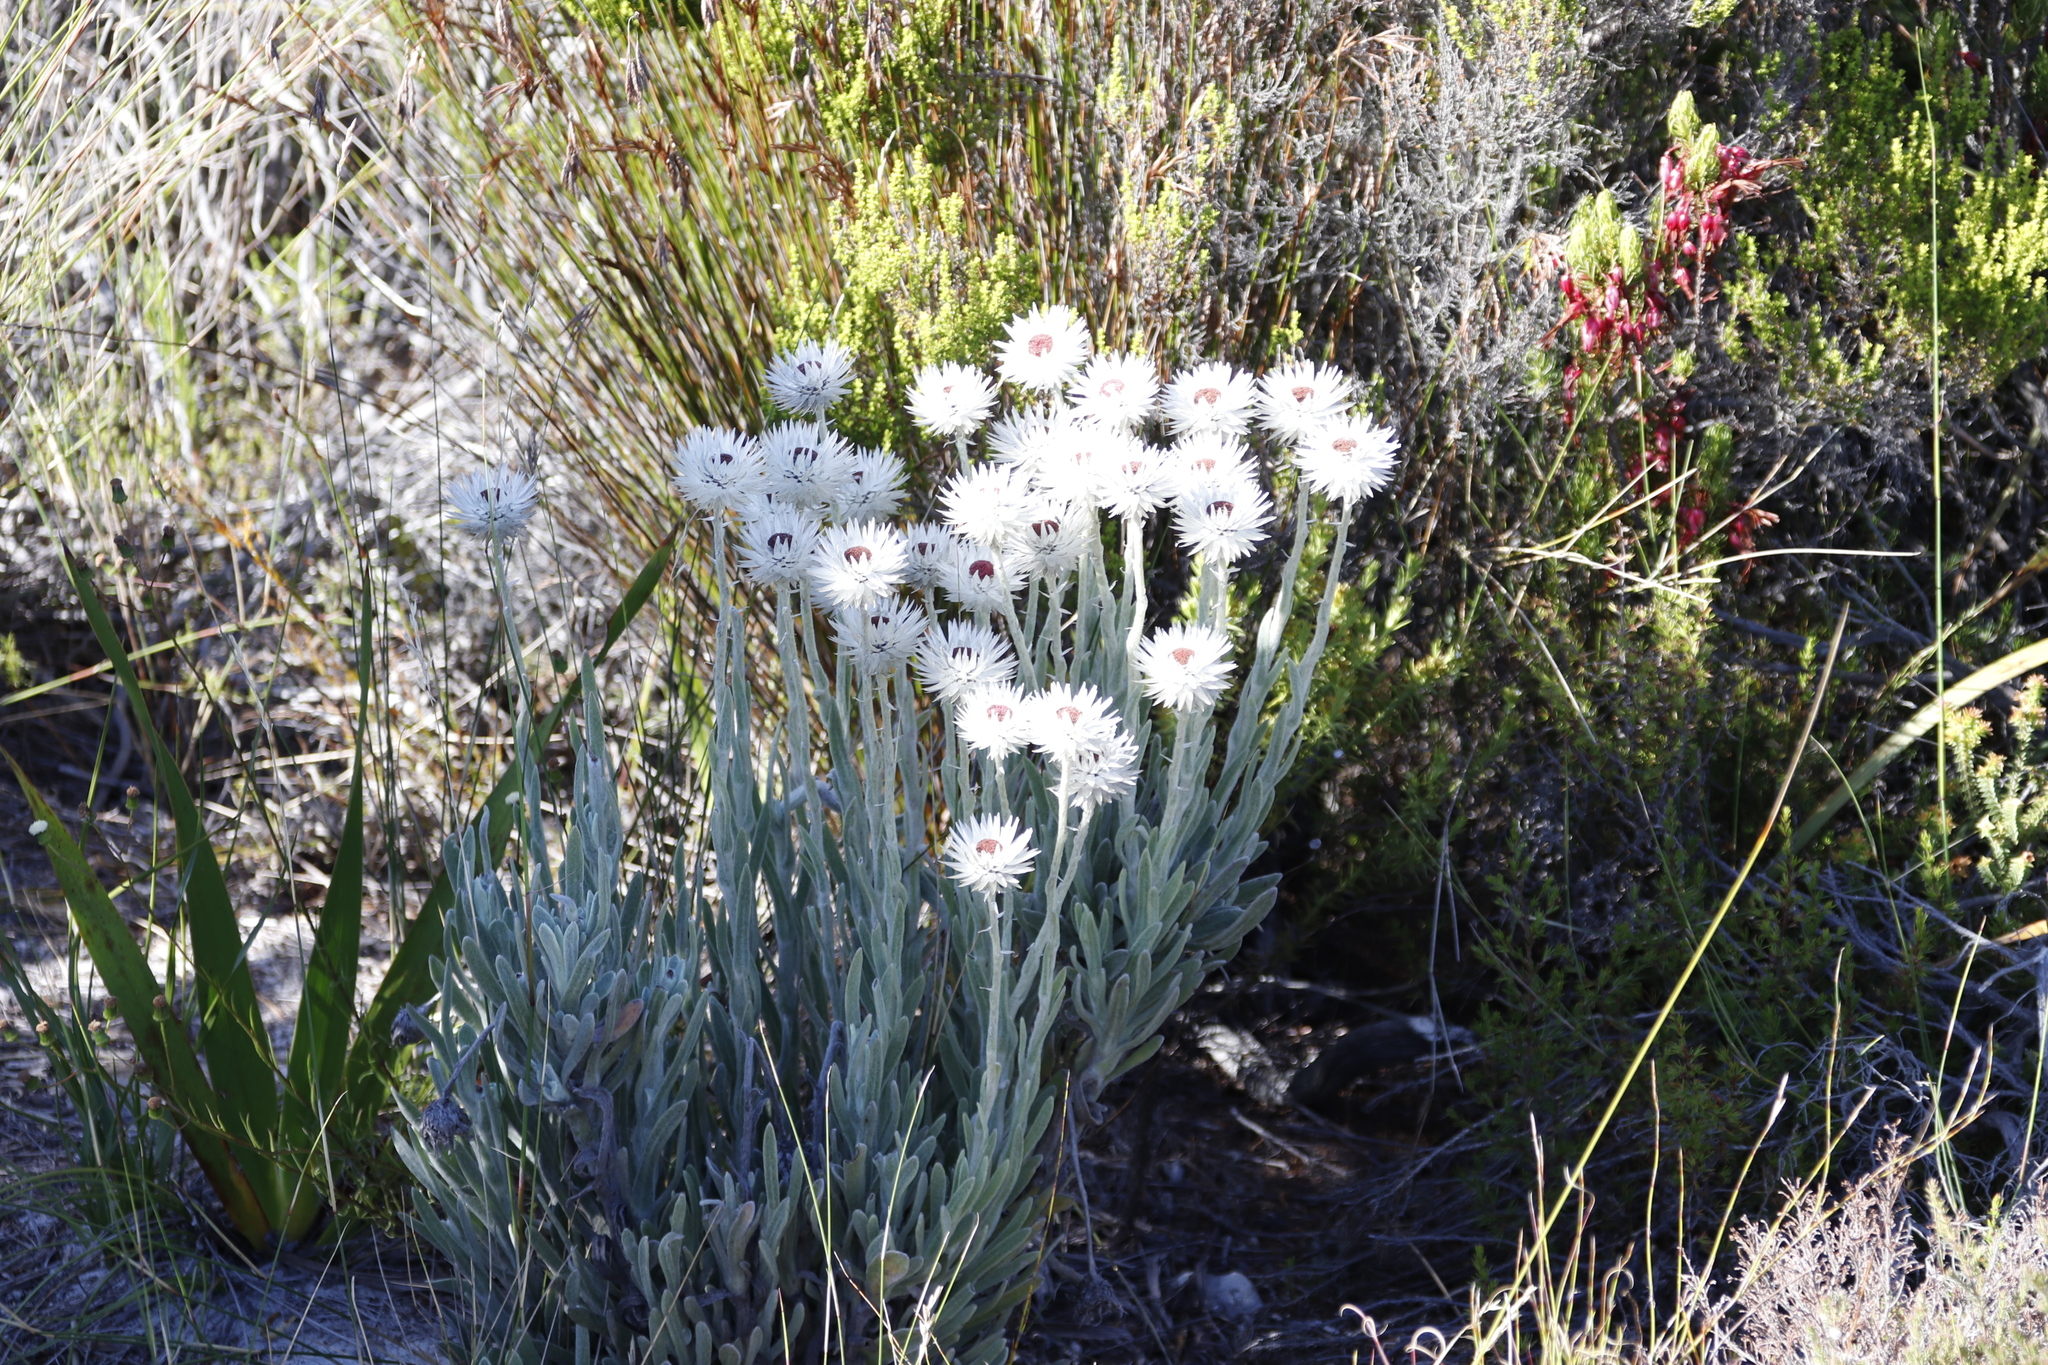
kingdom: Plantae
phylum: Tracheophyta
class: Magnoliopsida
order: Asterales
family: Asteraceae
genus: Syncarpha
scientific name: Syncarpha vestita
